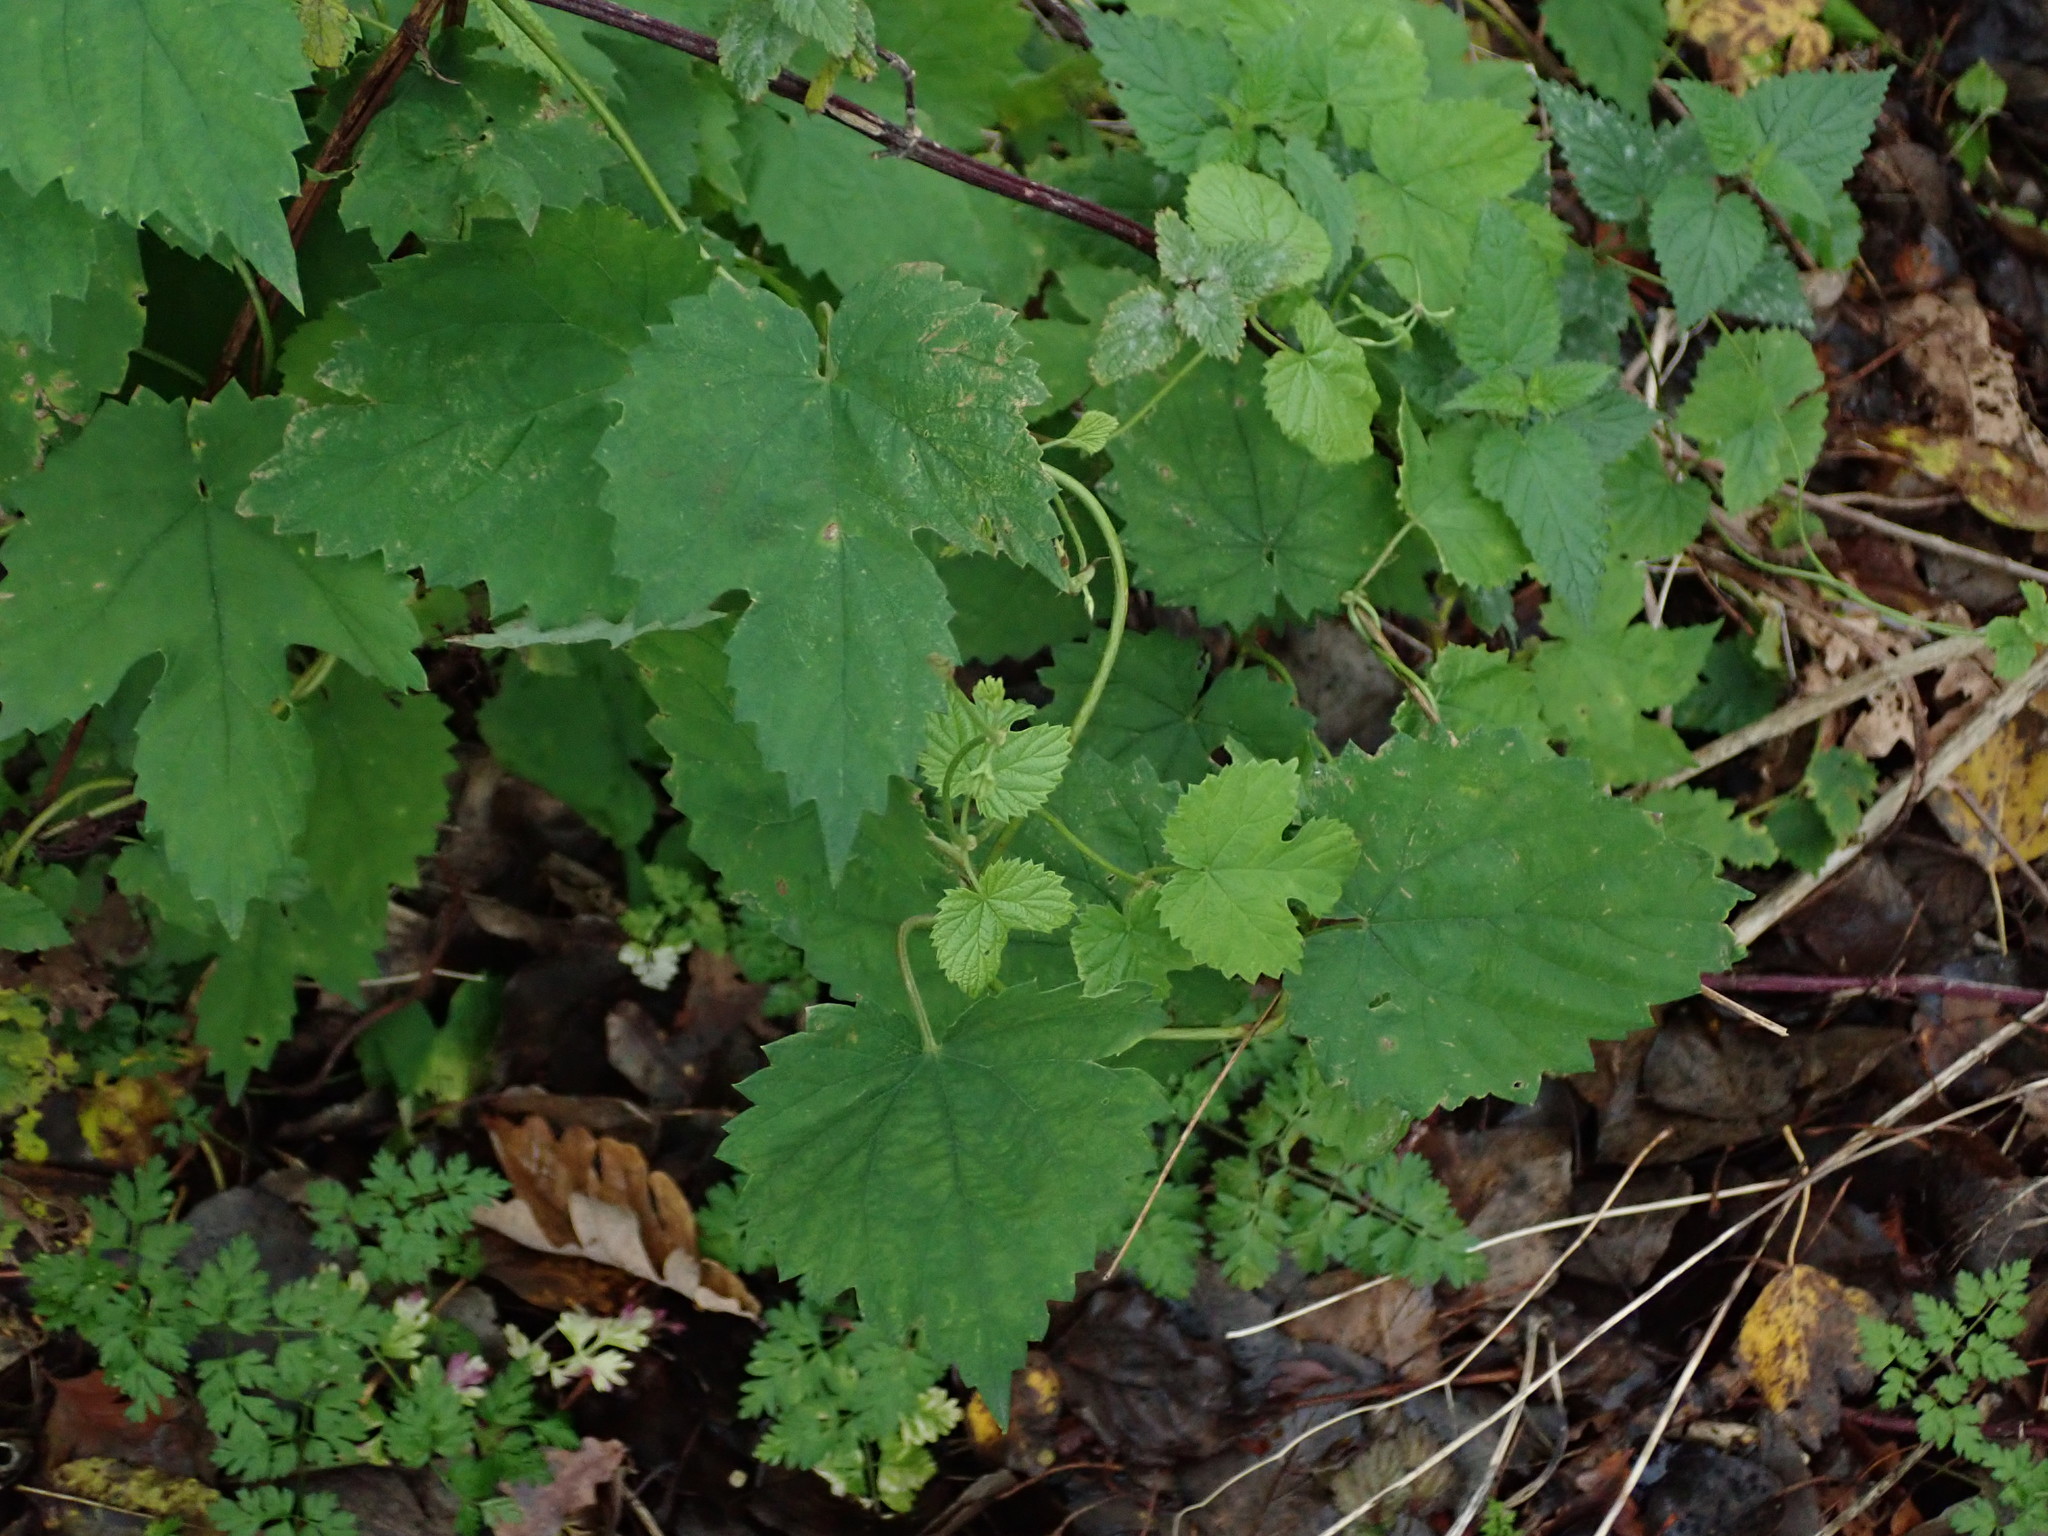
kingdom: Plantae
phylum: Tracheophyta
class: Magnoliopsida
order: Rosales
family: Cannabaceae
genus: Humulus
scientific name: Humulus lupulus
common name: Hop
